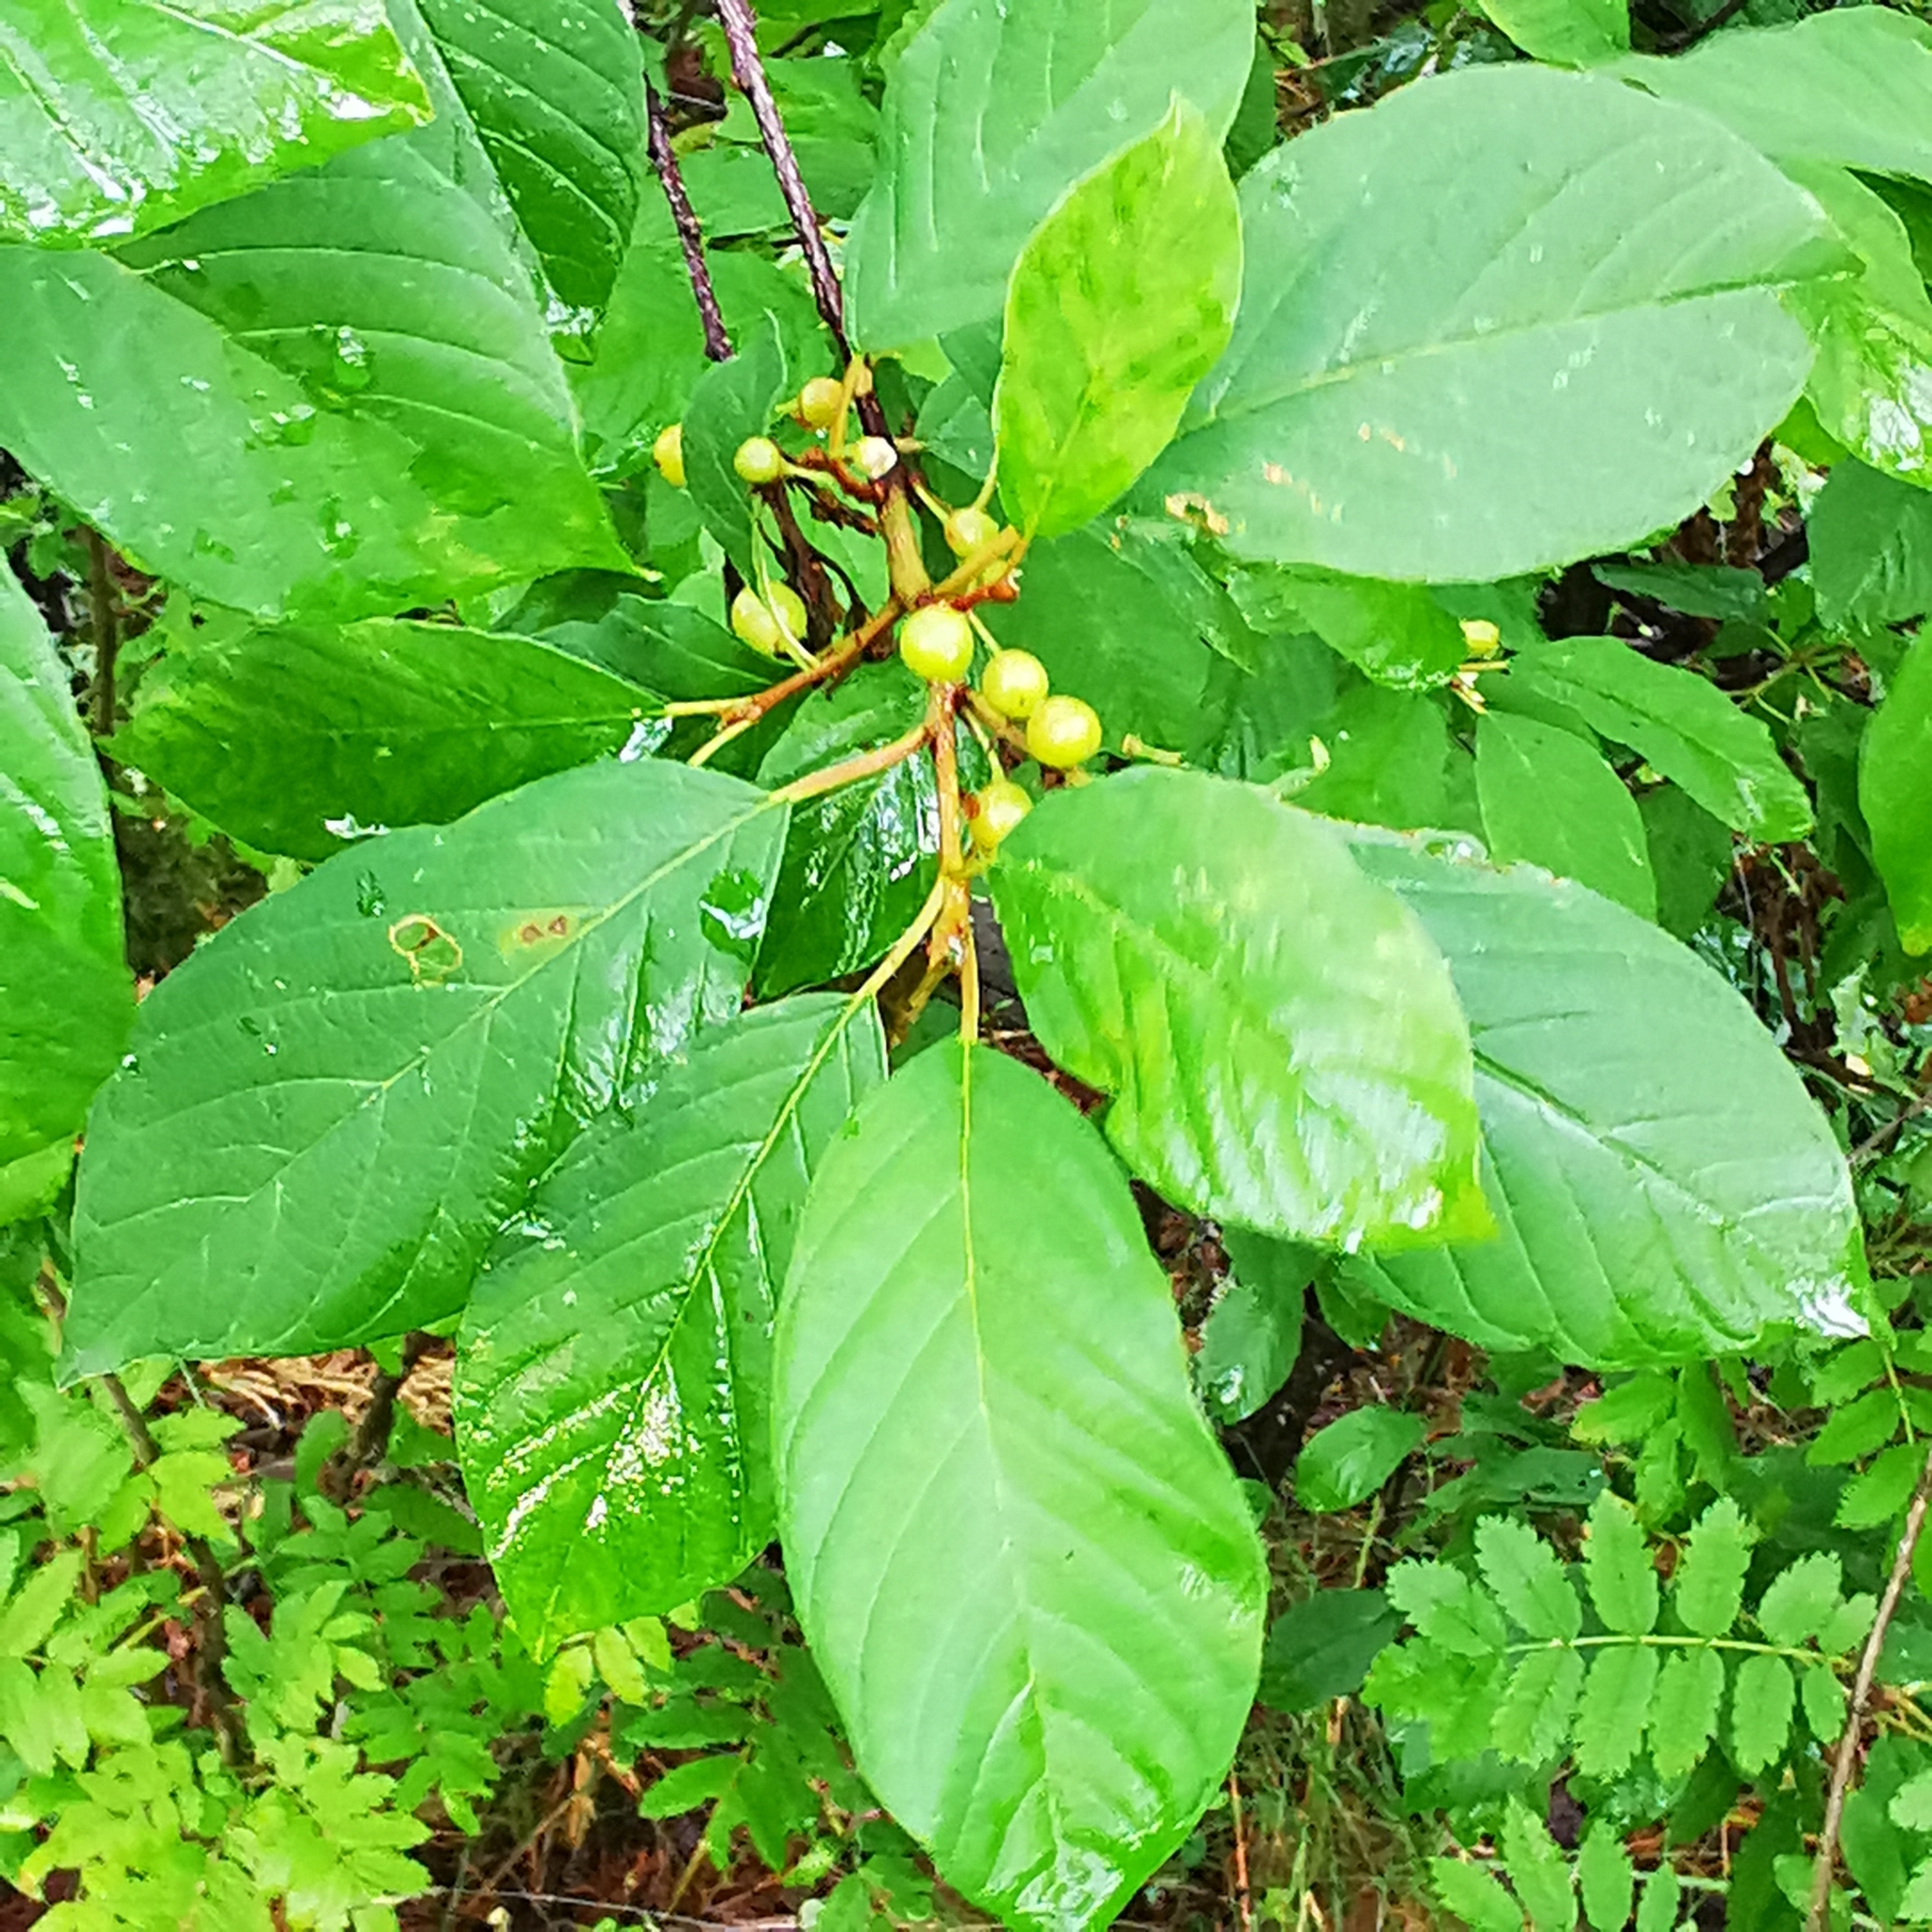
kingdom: Plantae
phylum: Tracheophyta
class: Magnoliopsida
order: Rosales
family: Rhamnaceae
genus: Frangula
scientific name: Frangula alnus
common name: Alder buckthorn
